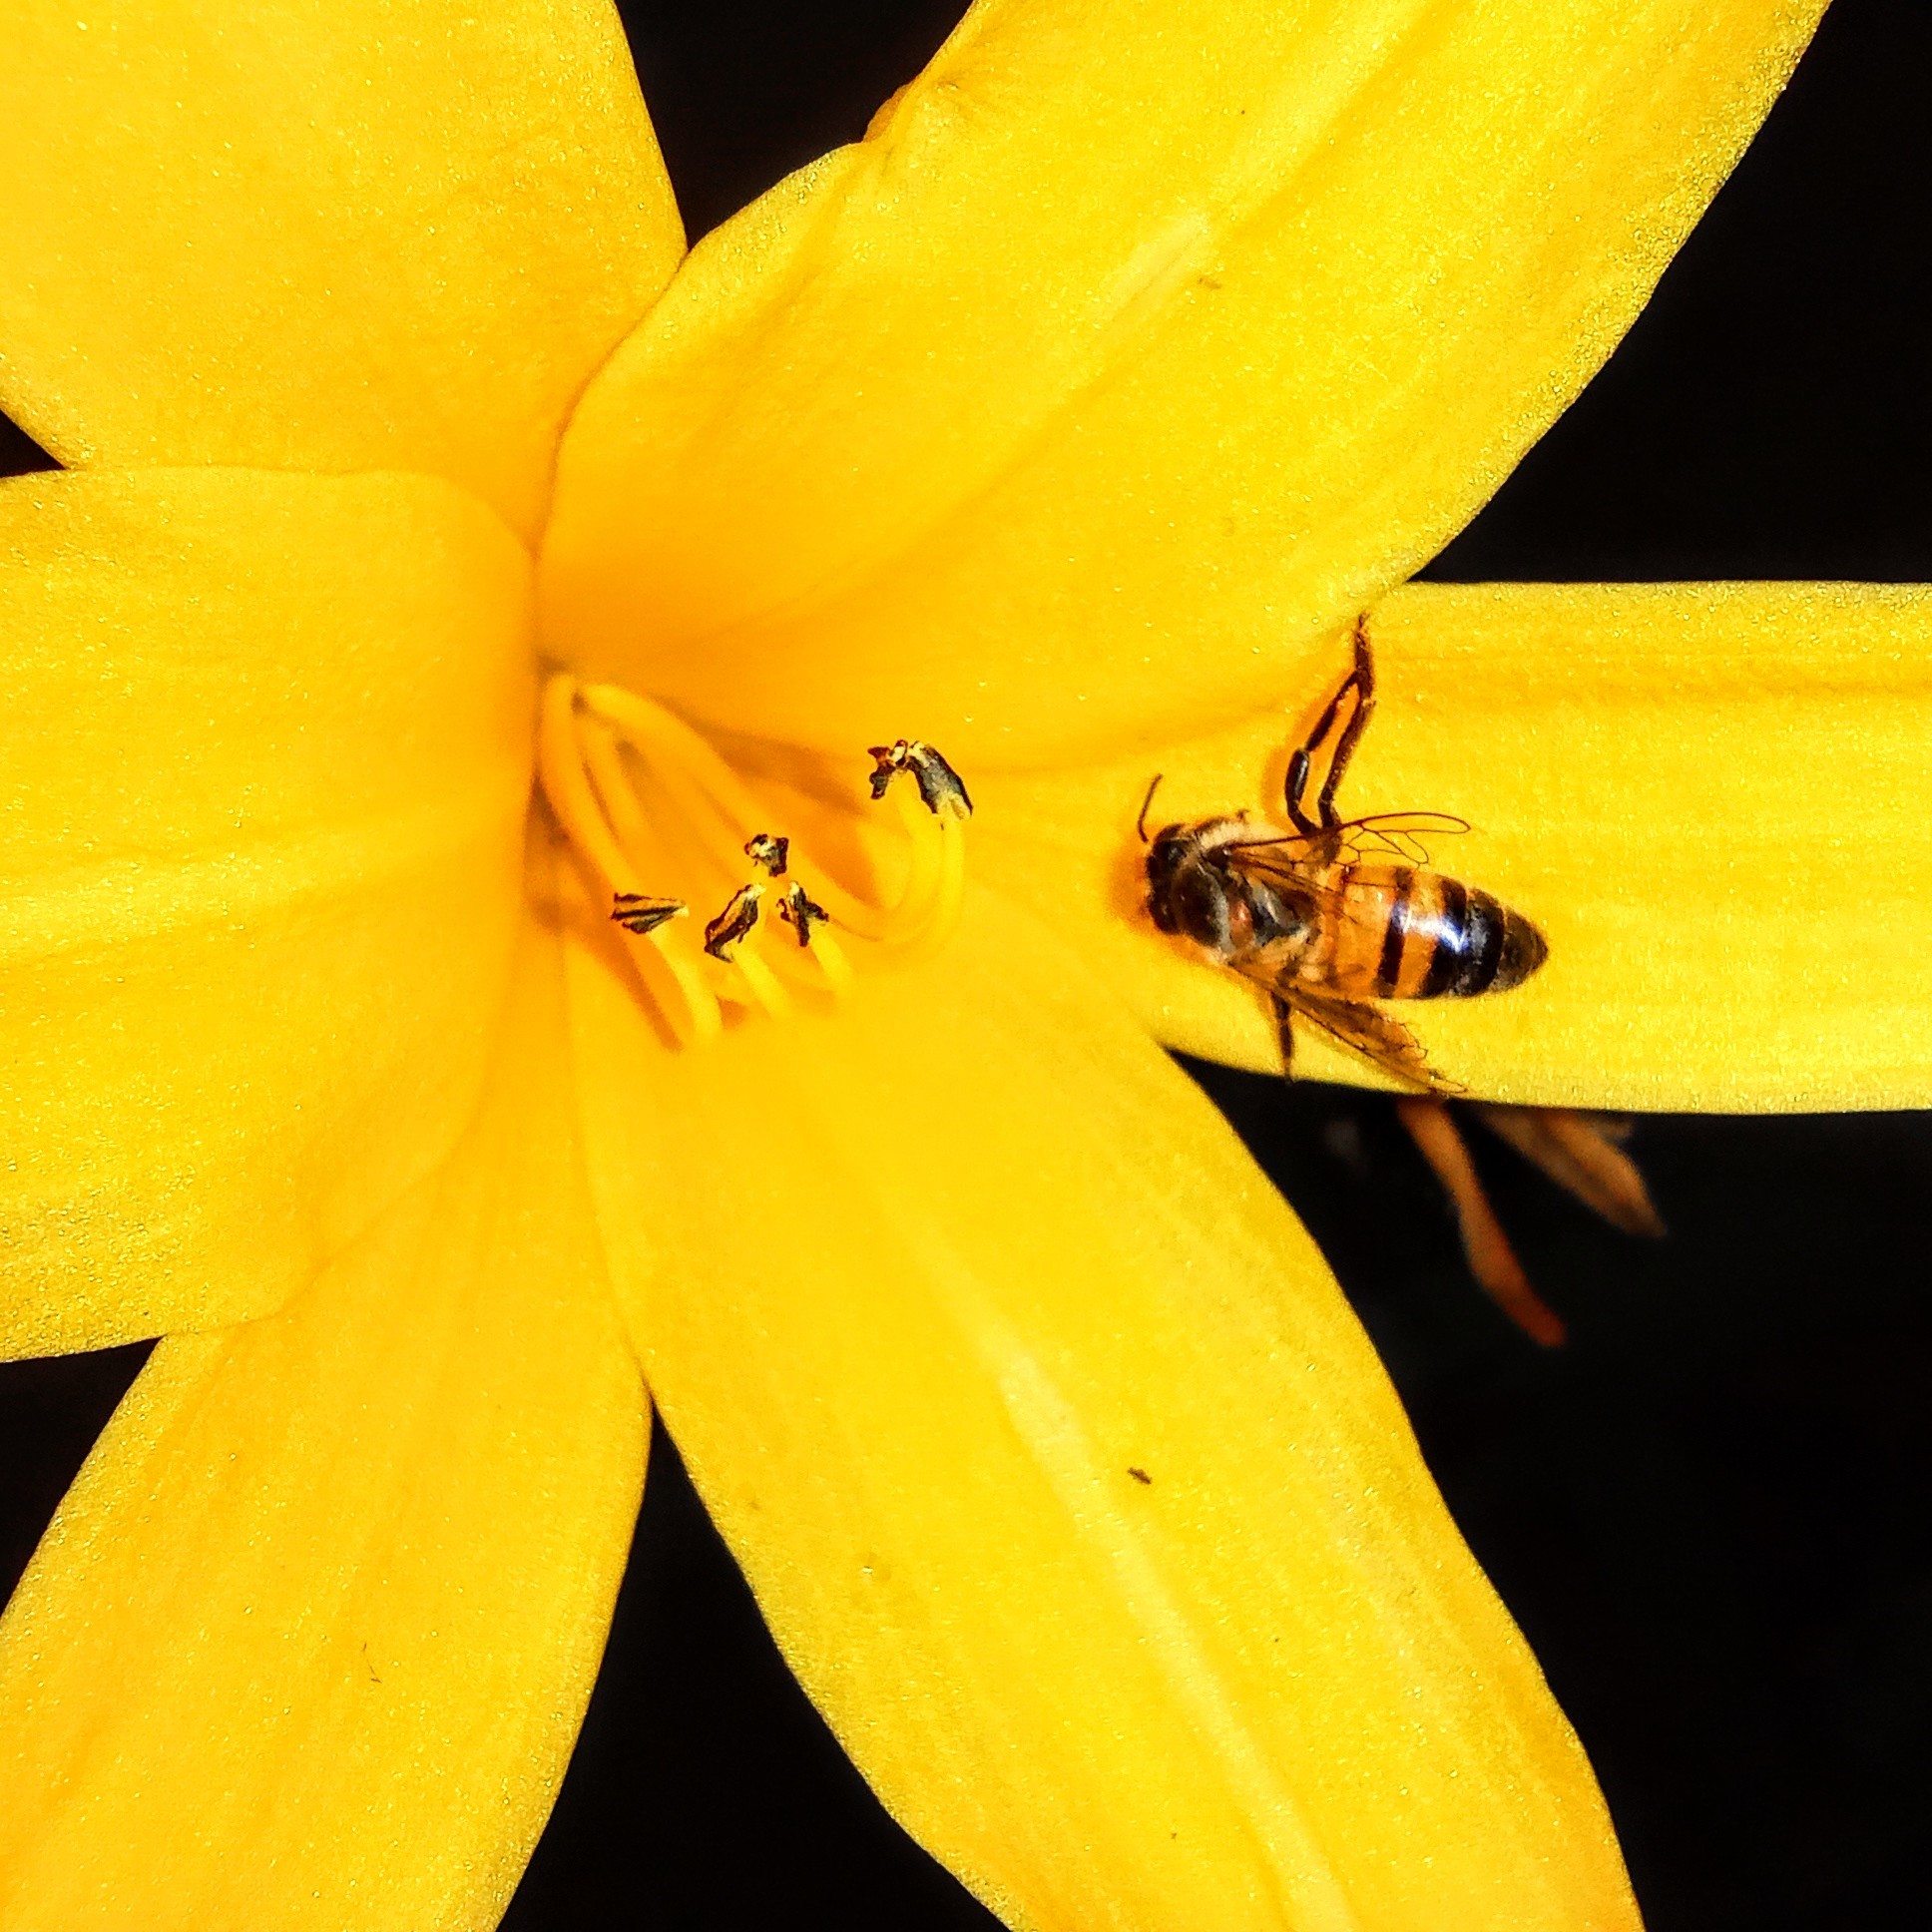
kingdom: Animalia
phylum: Arthropoda
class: Insecta
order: Hymenoptera
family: Apidae
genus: Apis
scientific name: Apis mellifera
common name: Honey bee
